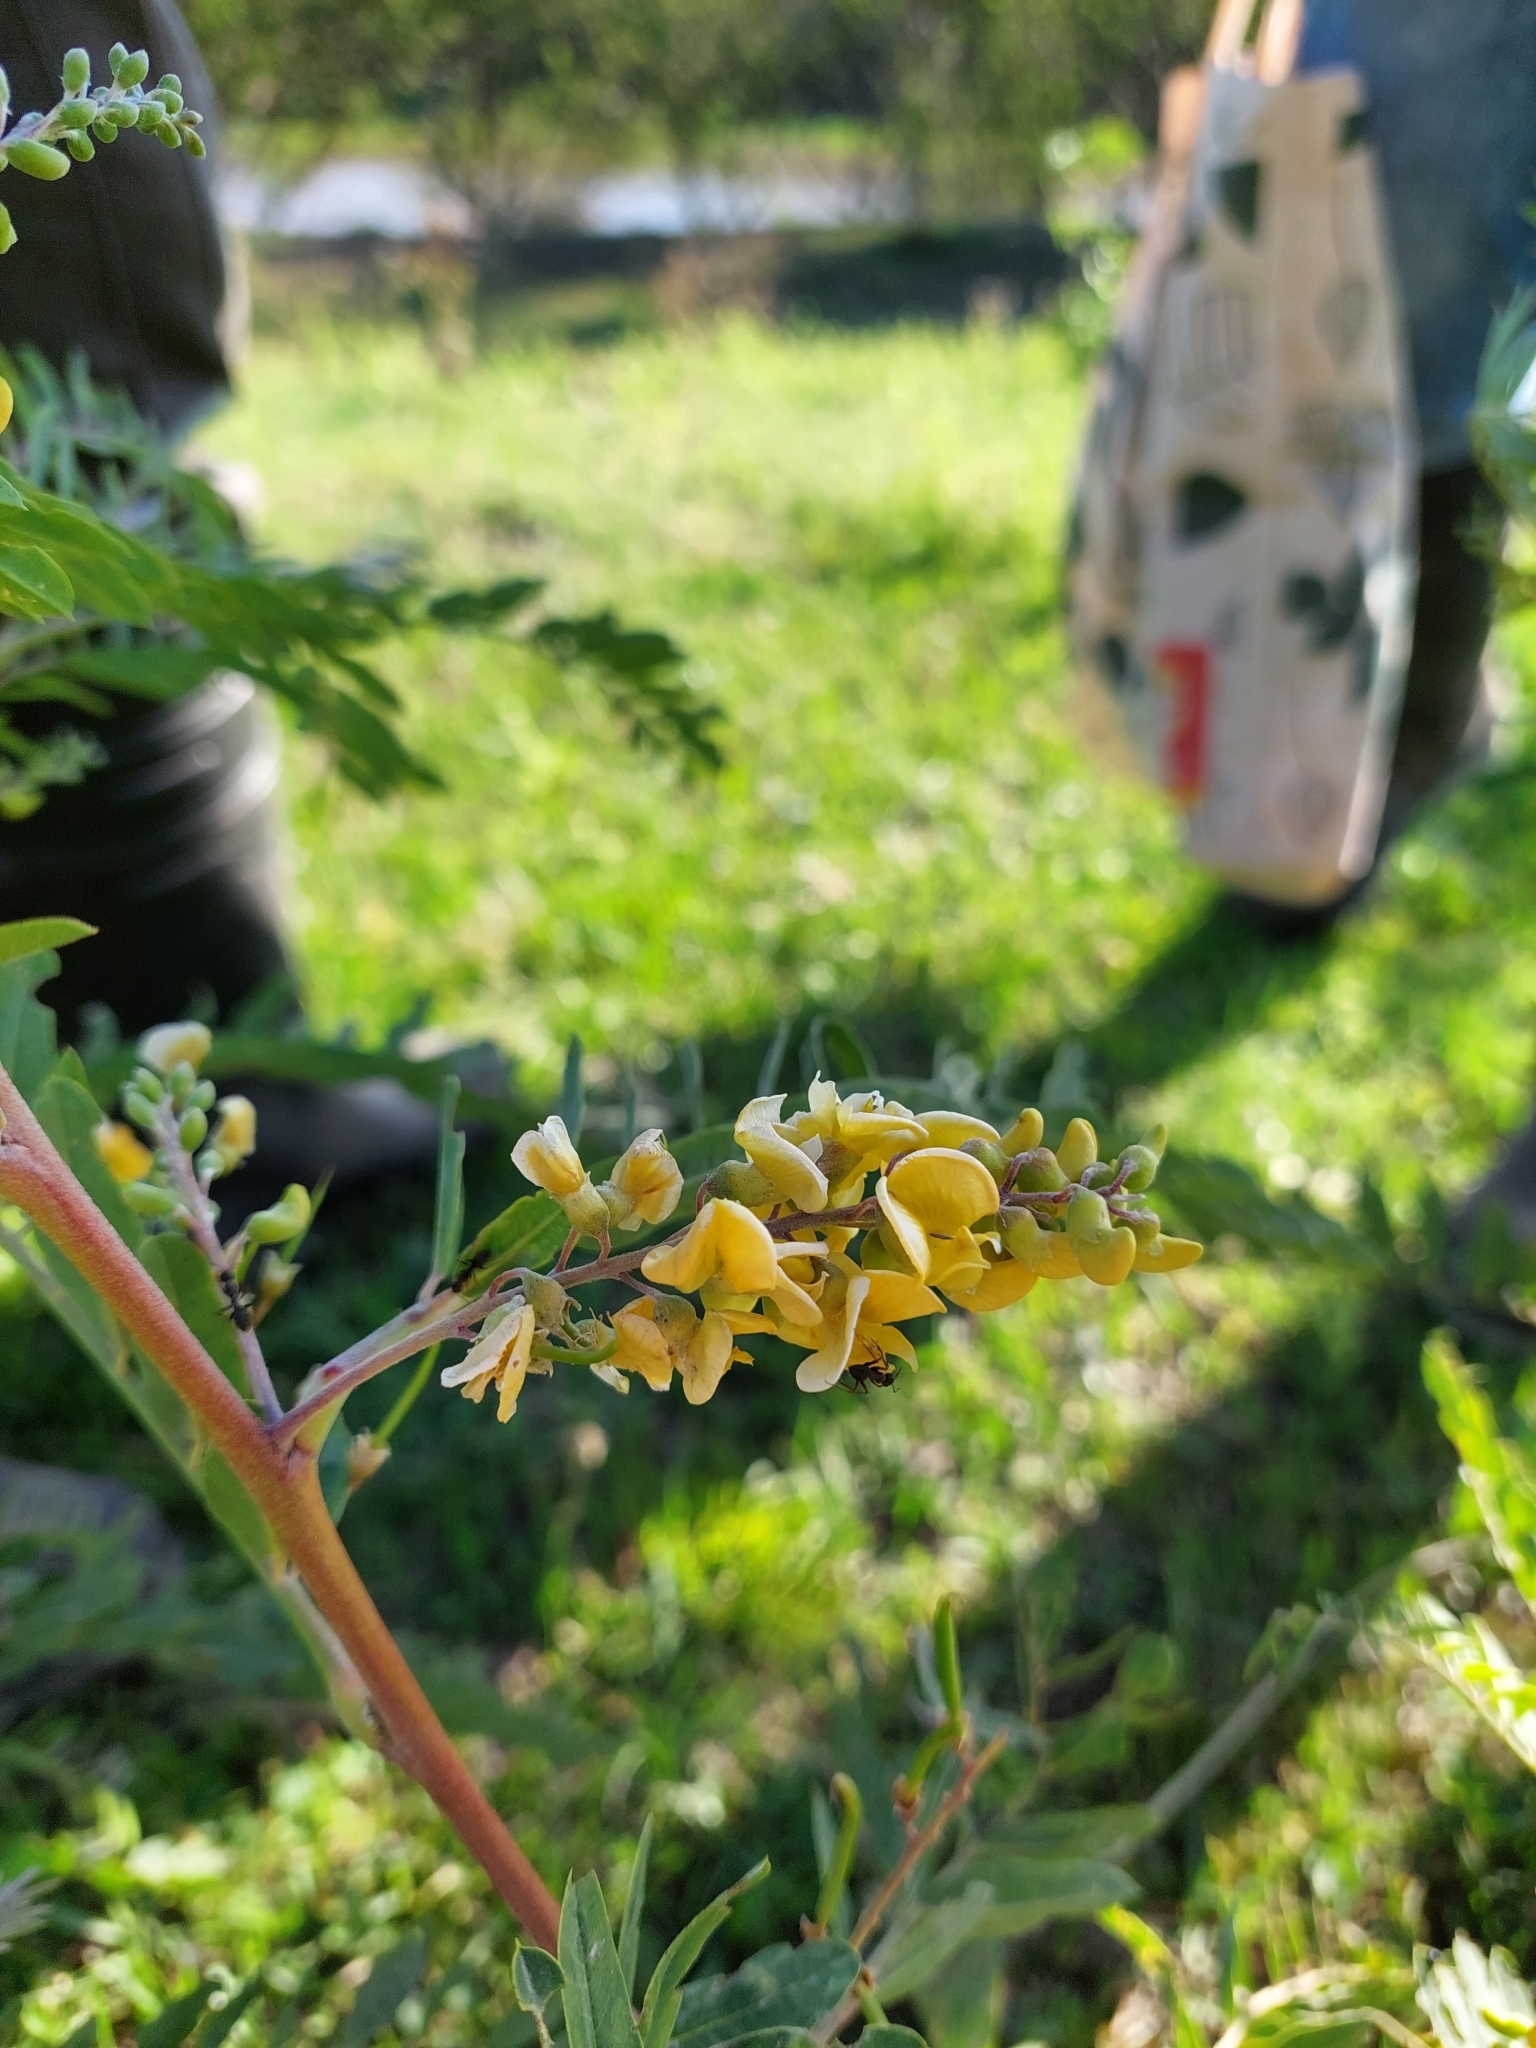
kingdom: Plantae
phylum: Tracheophyta
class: Magnoliopsida
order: Fabales
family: Fabaceae
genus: Sesbania
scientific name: Sesbania virgata
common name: Wand riverhemp
